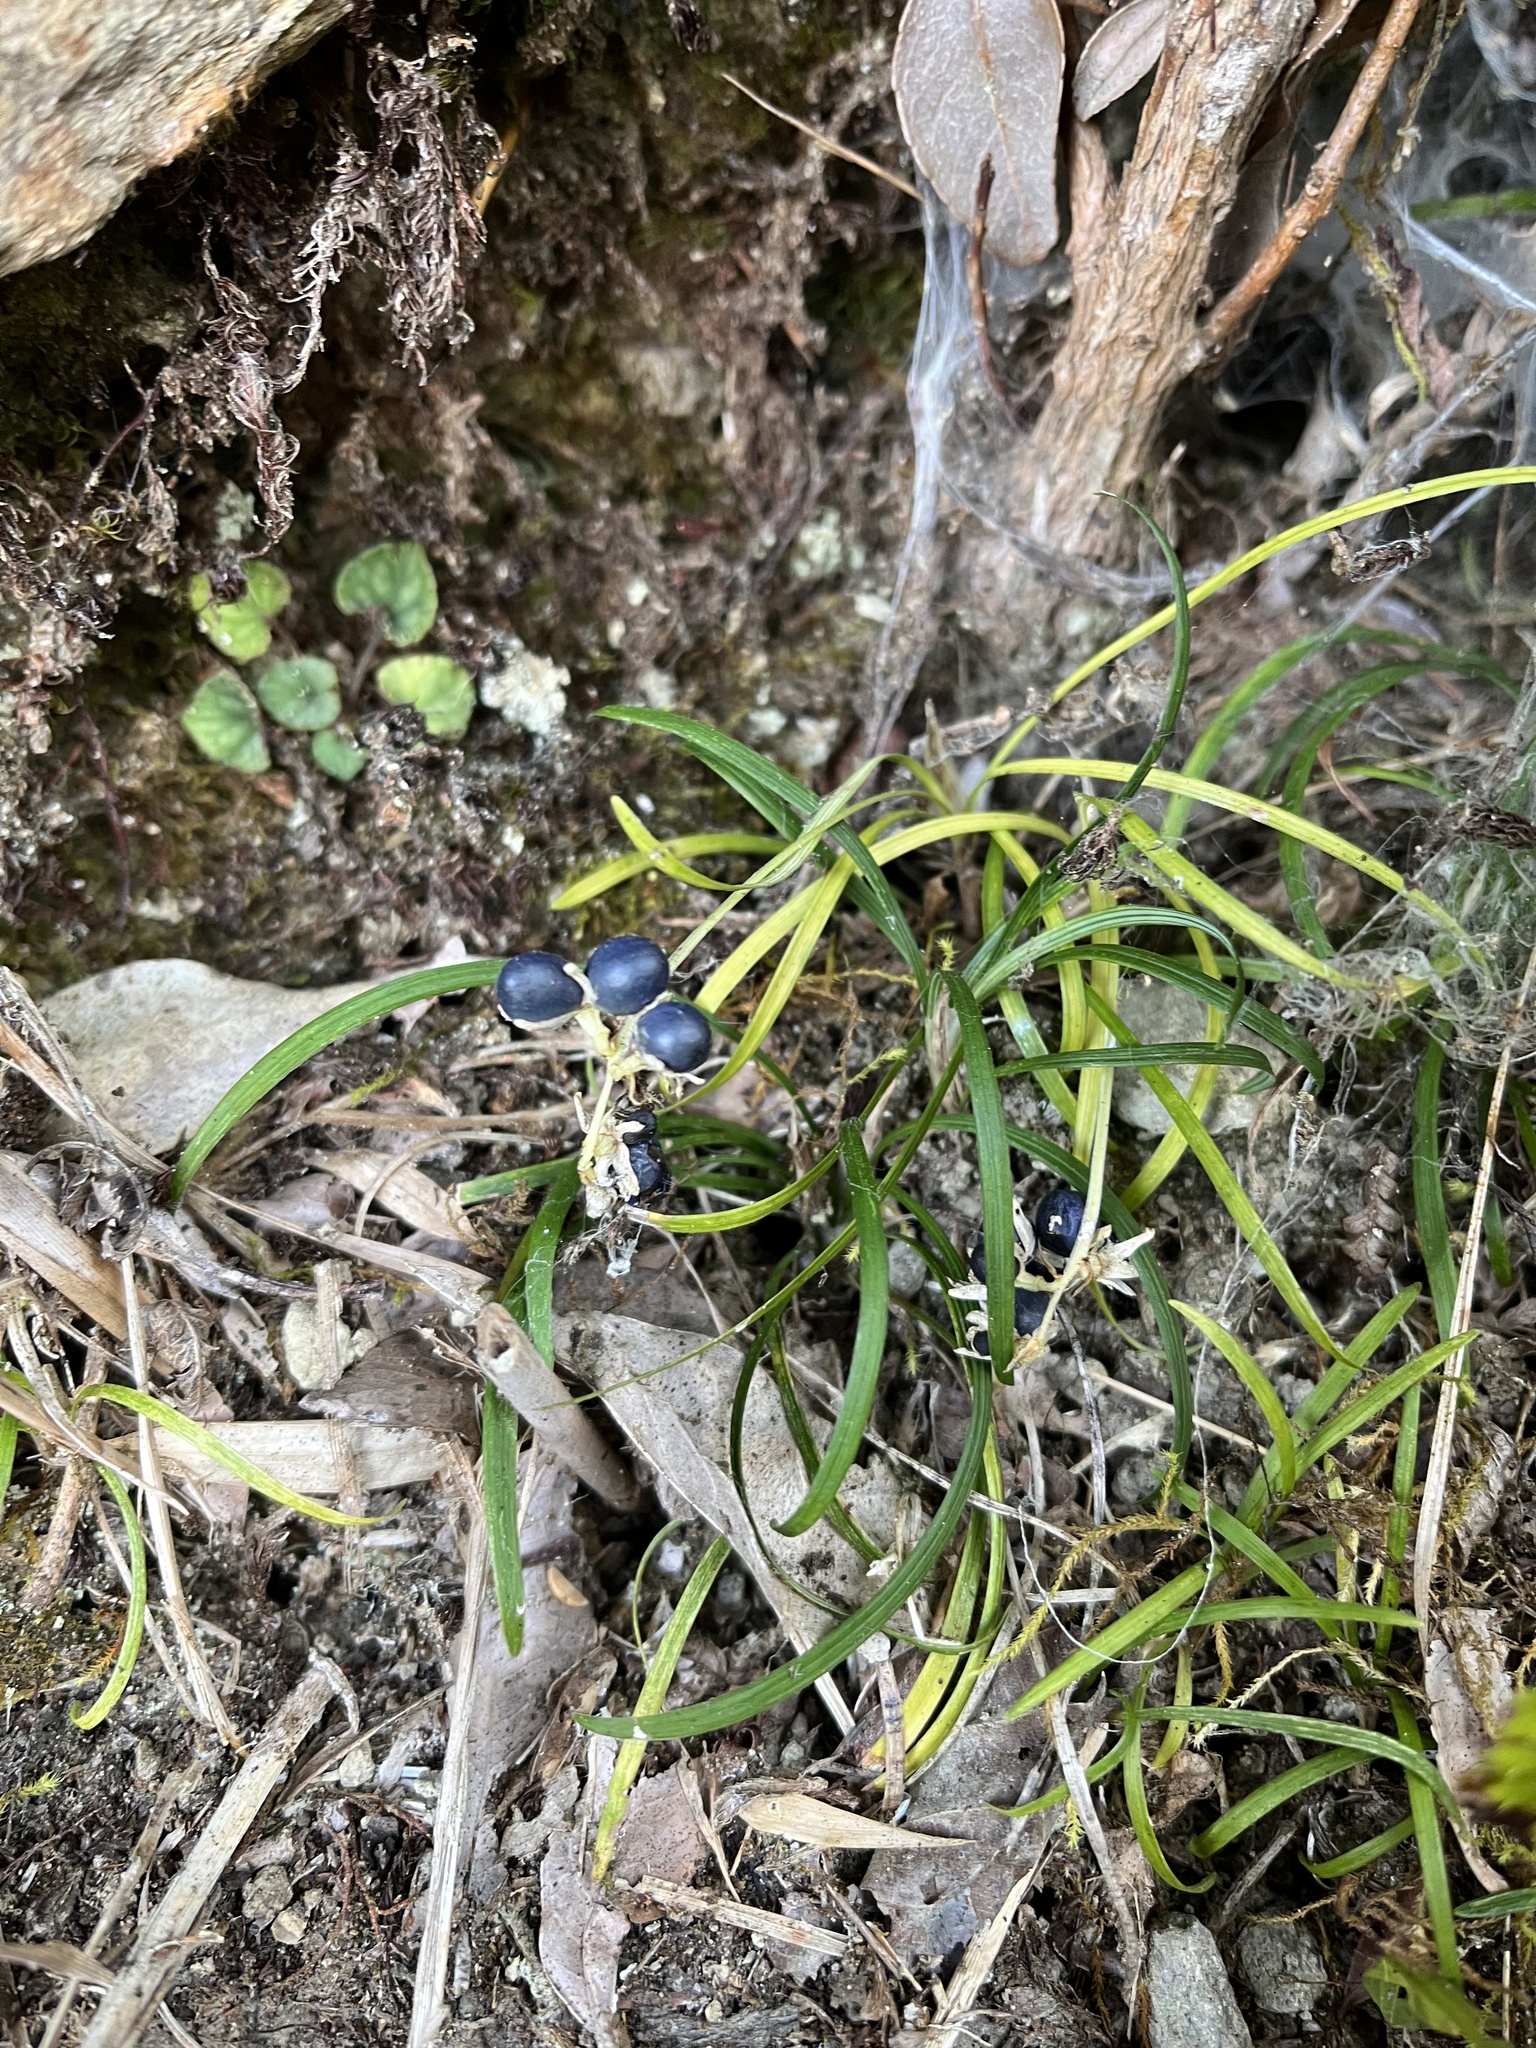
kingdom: Plantae
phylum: Tracheophyta
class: Liliopsida
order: Asparagales
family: Asparagaceae
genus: Ophiopogon
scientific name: Ophiopogon intermedius
